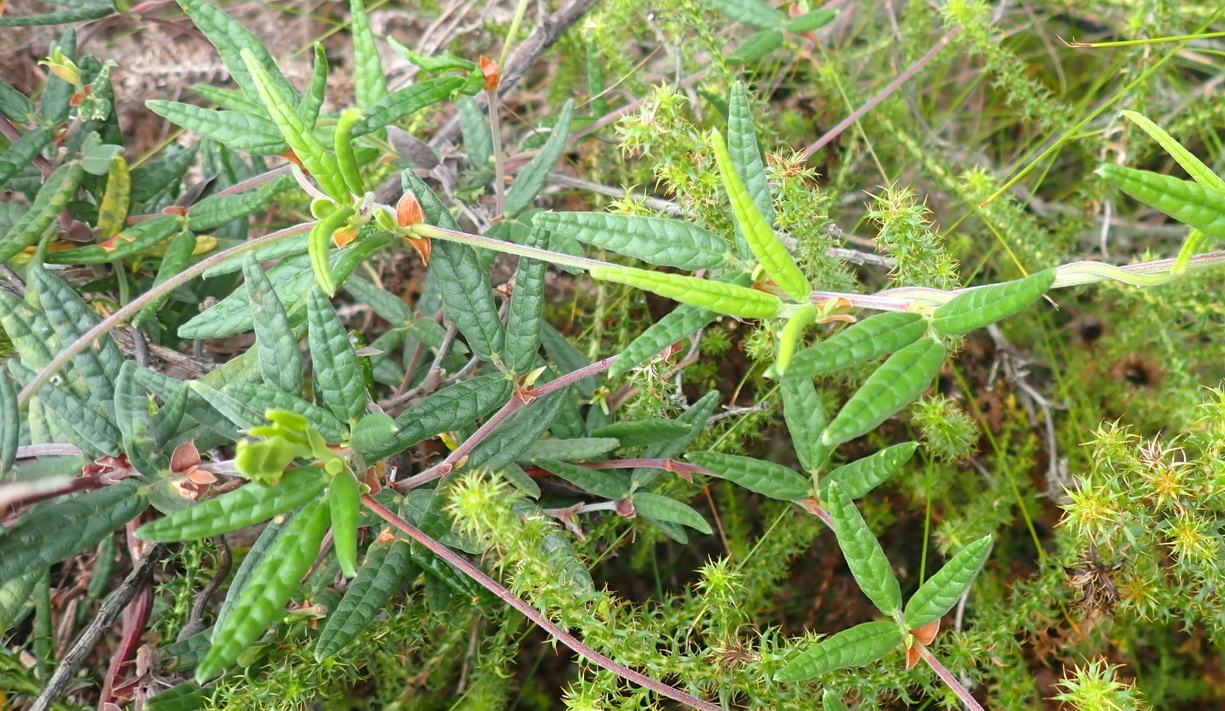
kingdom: Plantae
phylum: Tracheophyta
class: Magnoliopsida
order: Fabales
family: Fabaceae
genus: Rhynchosia
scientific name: Rhynchosia chrysoscias
